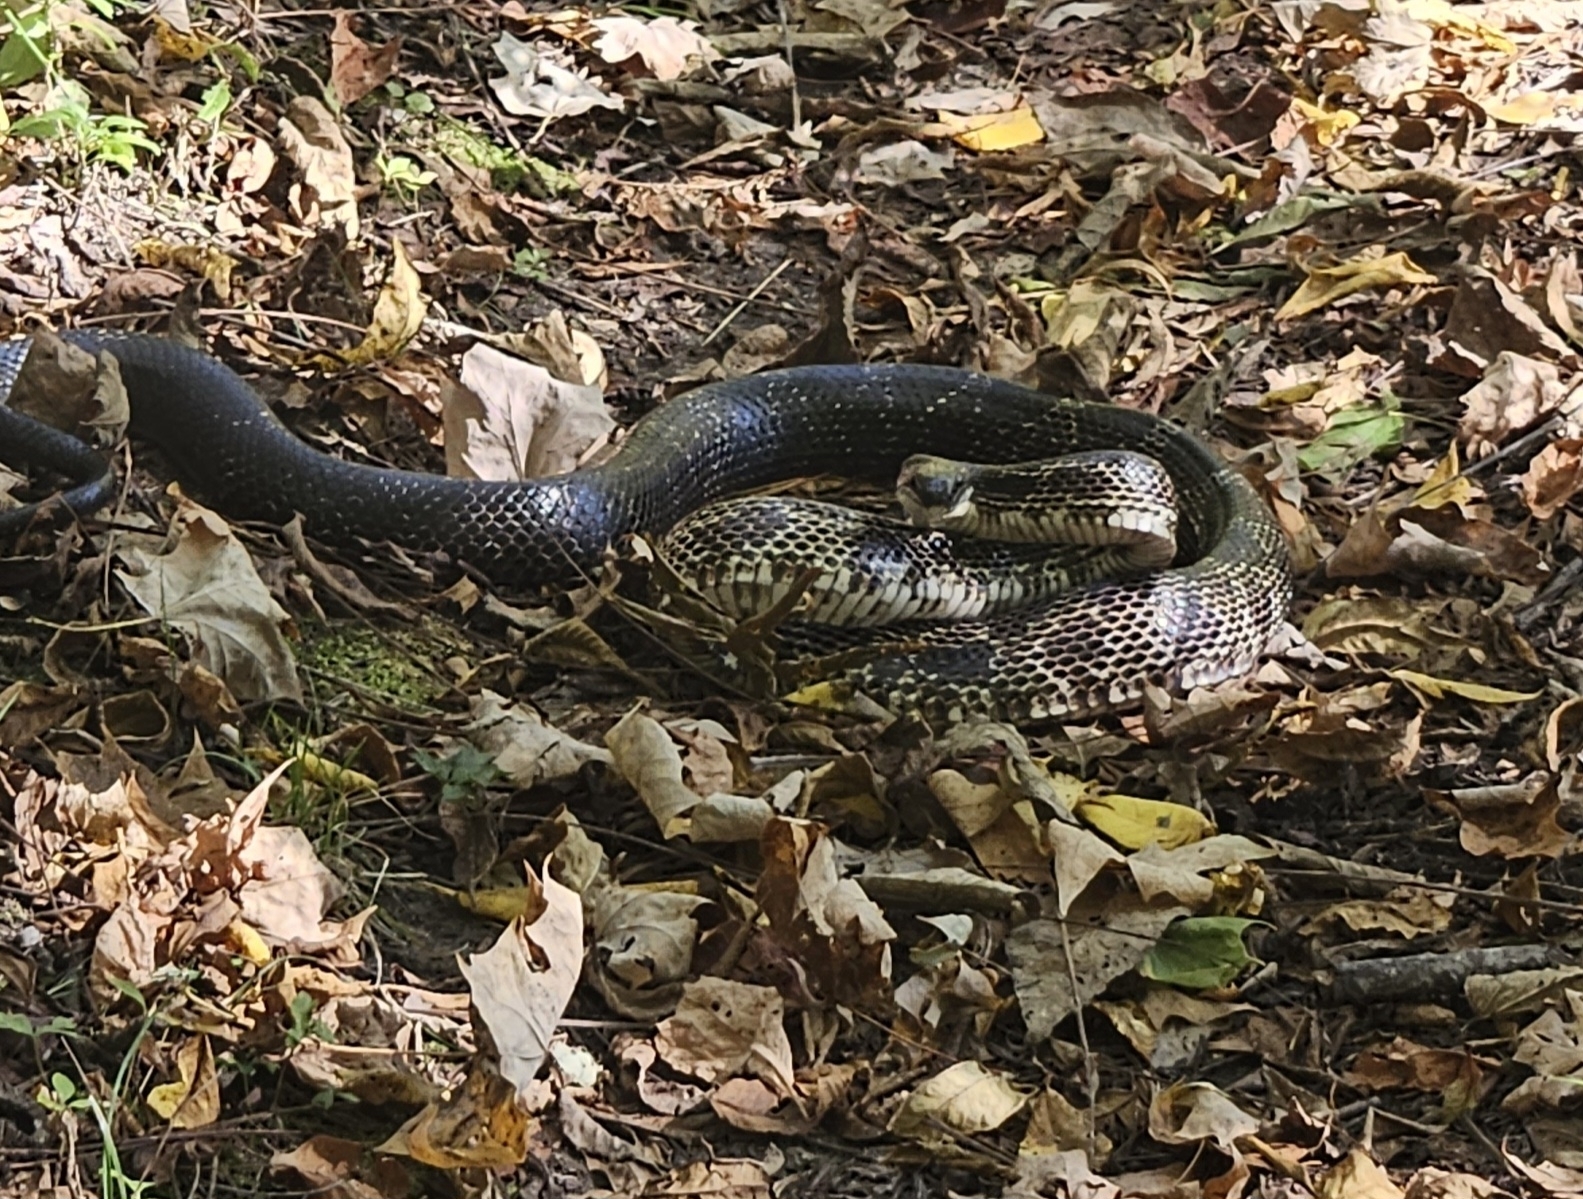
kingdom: Animalia
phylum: Chordata
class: Squamata
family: Colubridae
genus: Pantherophis
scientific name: Pantherophis spiloides
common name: Gray rat snake
